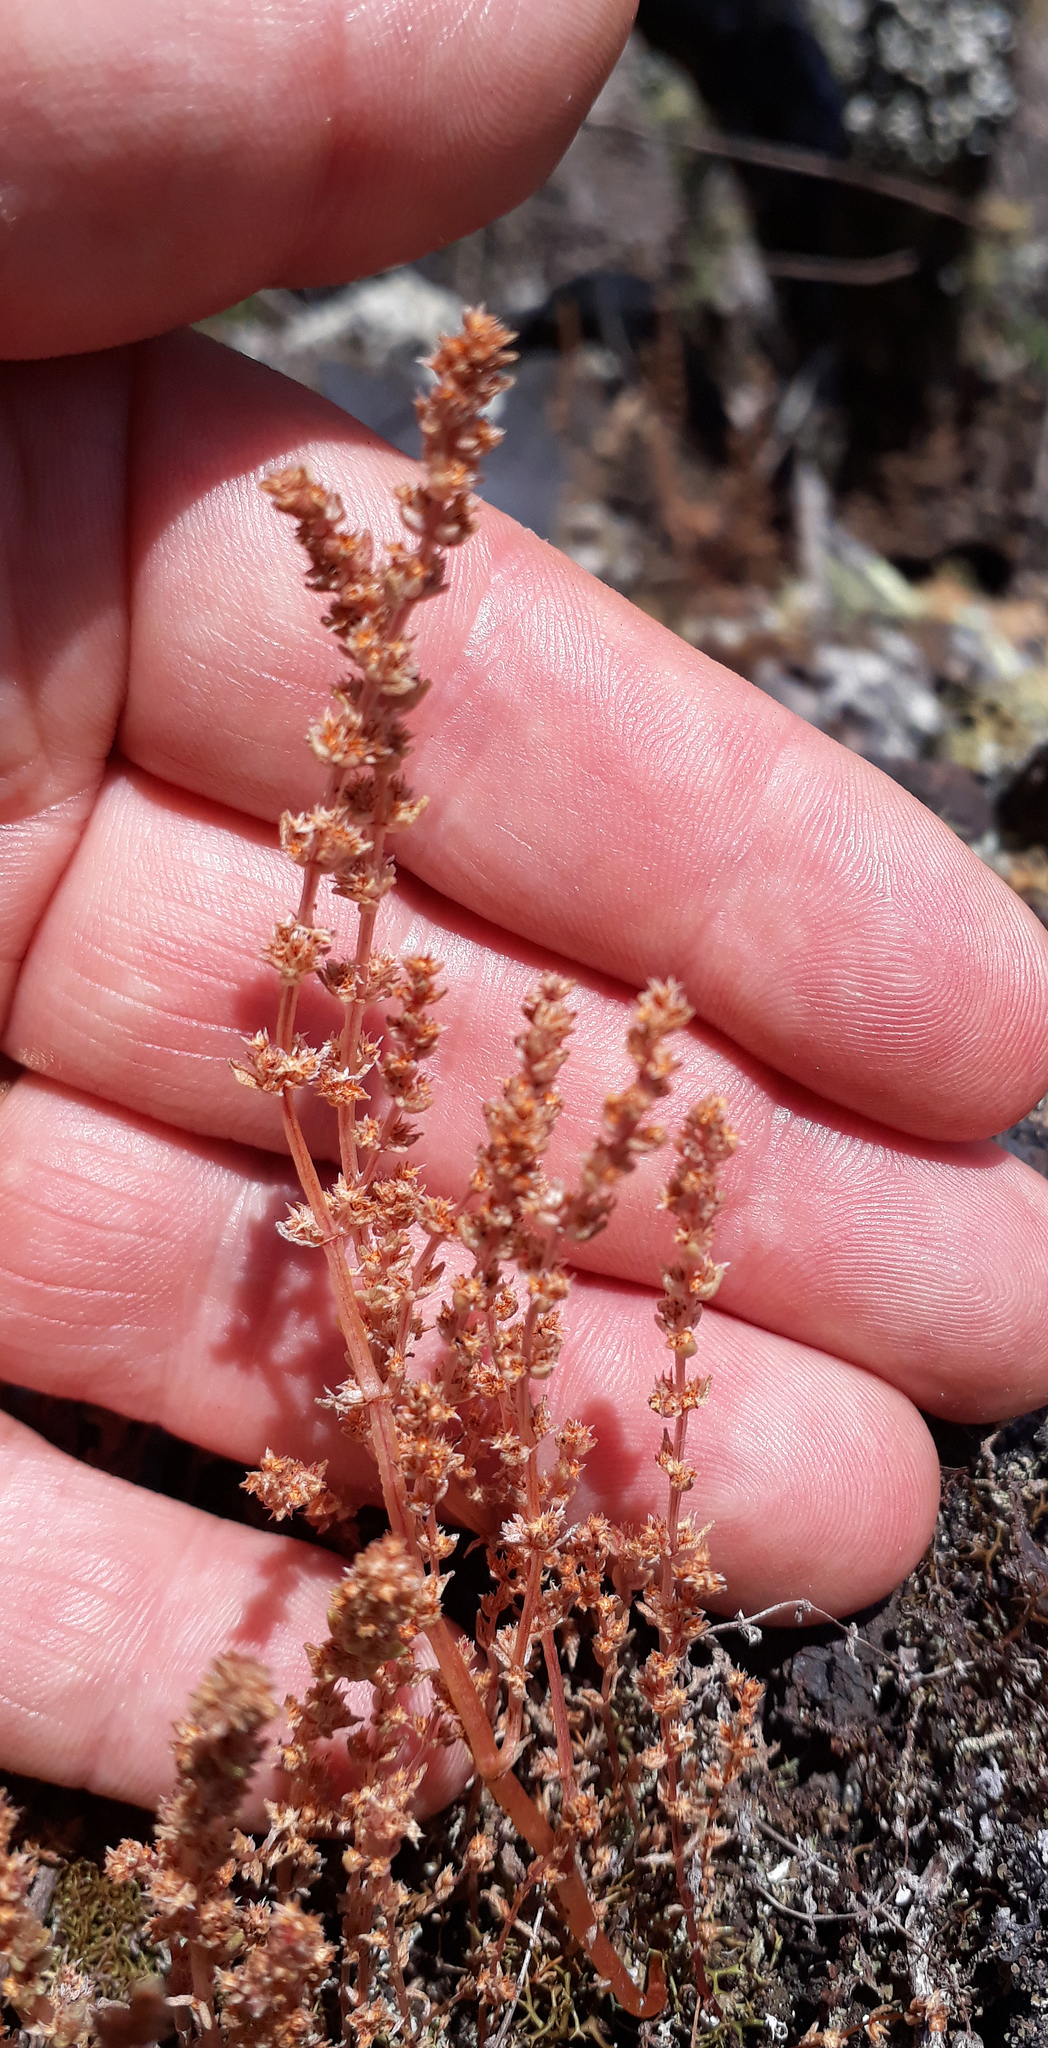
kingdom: Plantae
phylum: Tracheophyta
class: Magnoliopsida
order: Saxifragales
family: Crassulaceae
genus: Crassula
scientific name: Crassula colligata
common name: Pygmyweed
